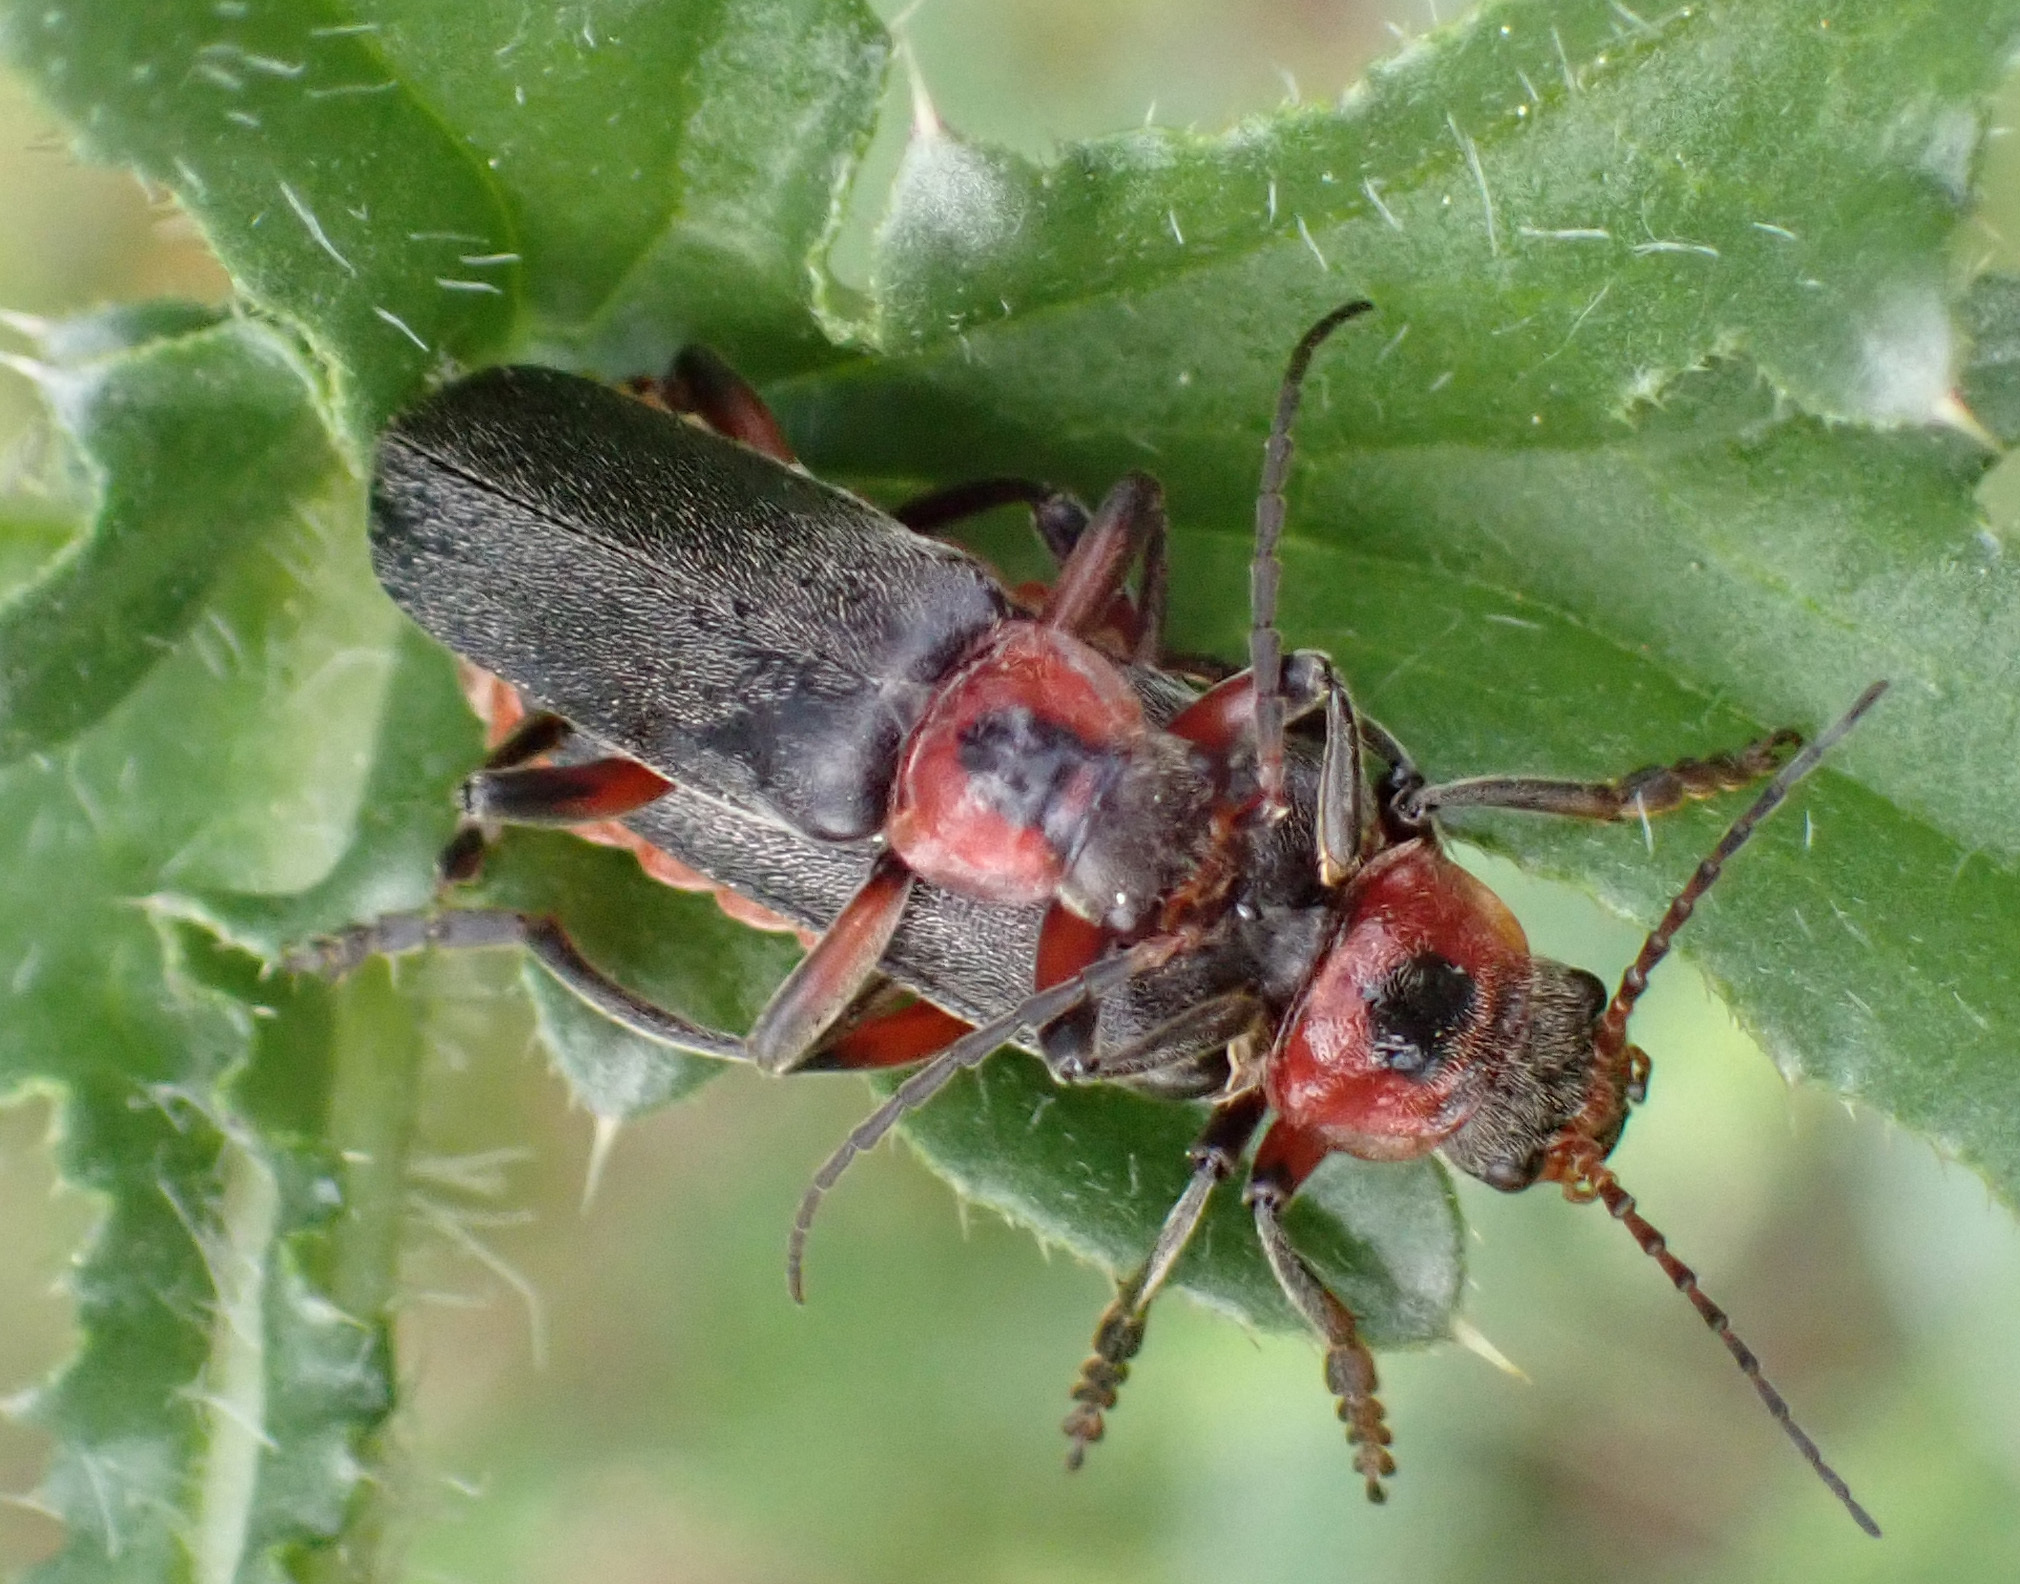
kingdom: Animalia
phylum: Arthropoda
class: Insecta
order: Coleoptera
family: Cantharidae
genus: Cantharis
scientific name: Cantharis rustica
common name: Soldier beetle
